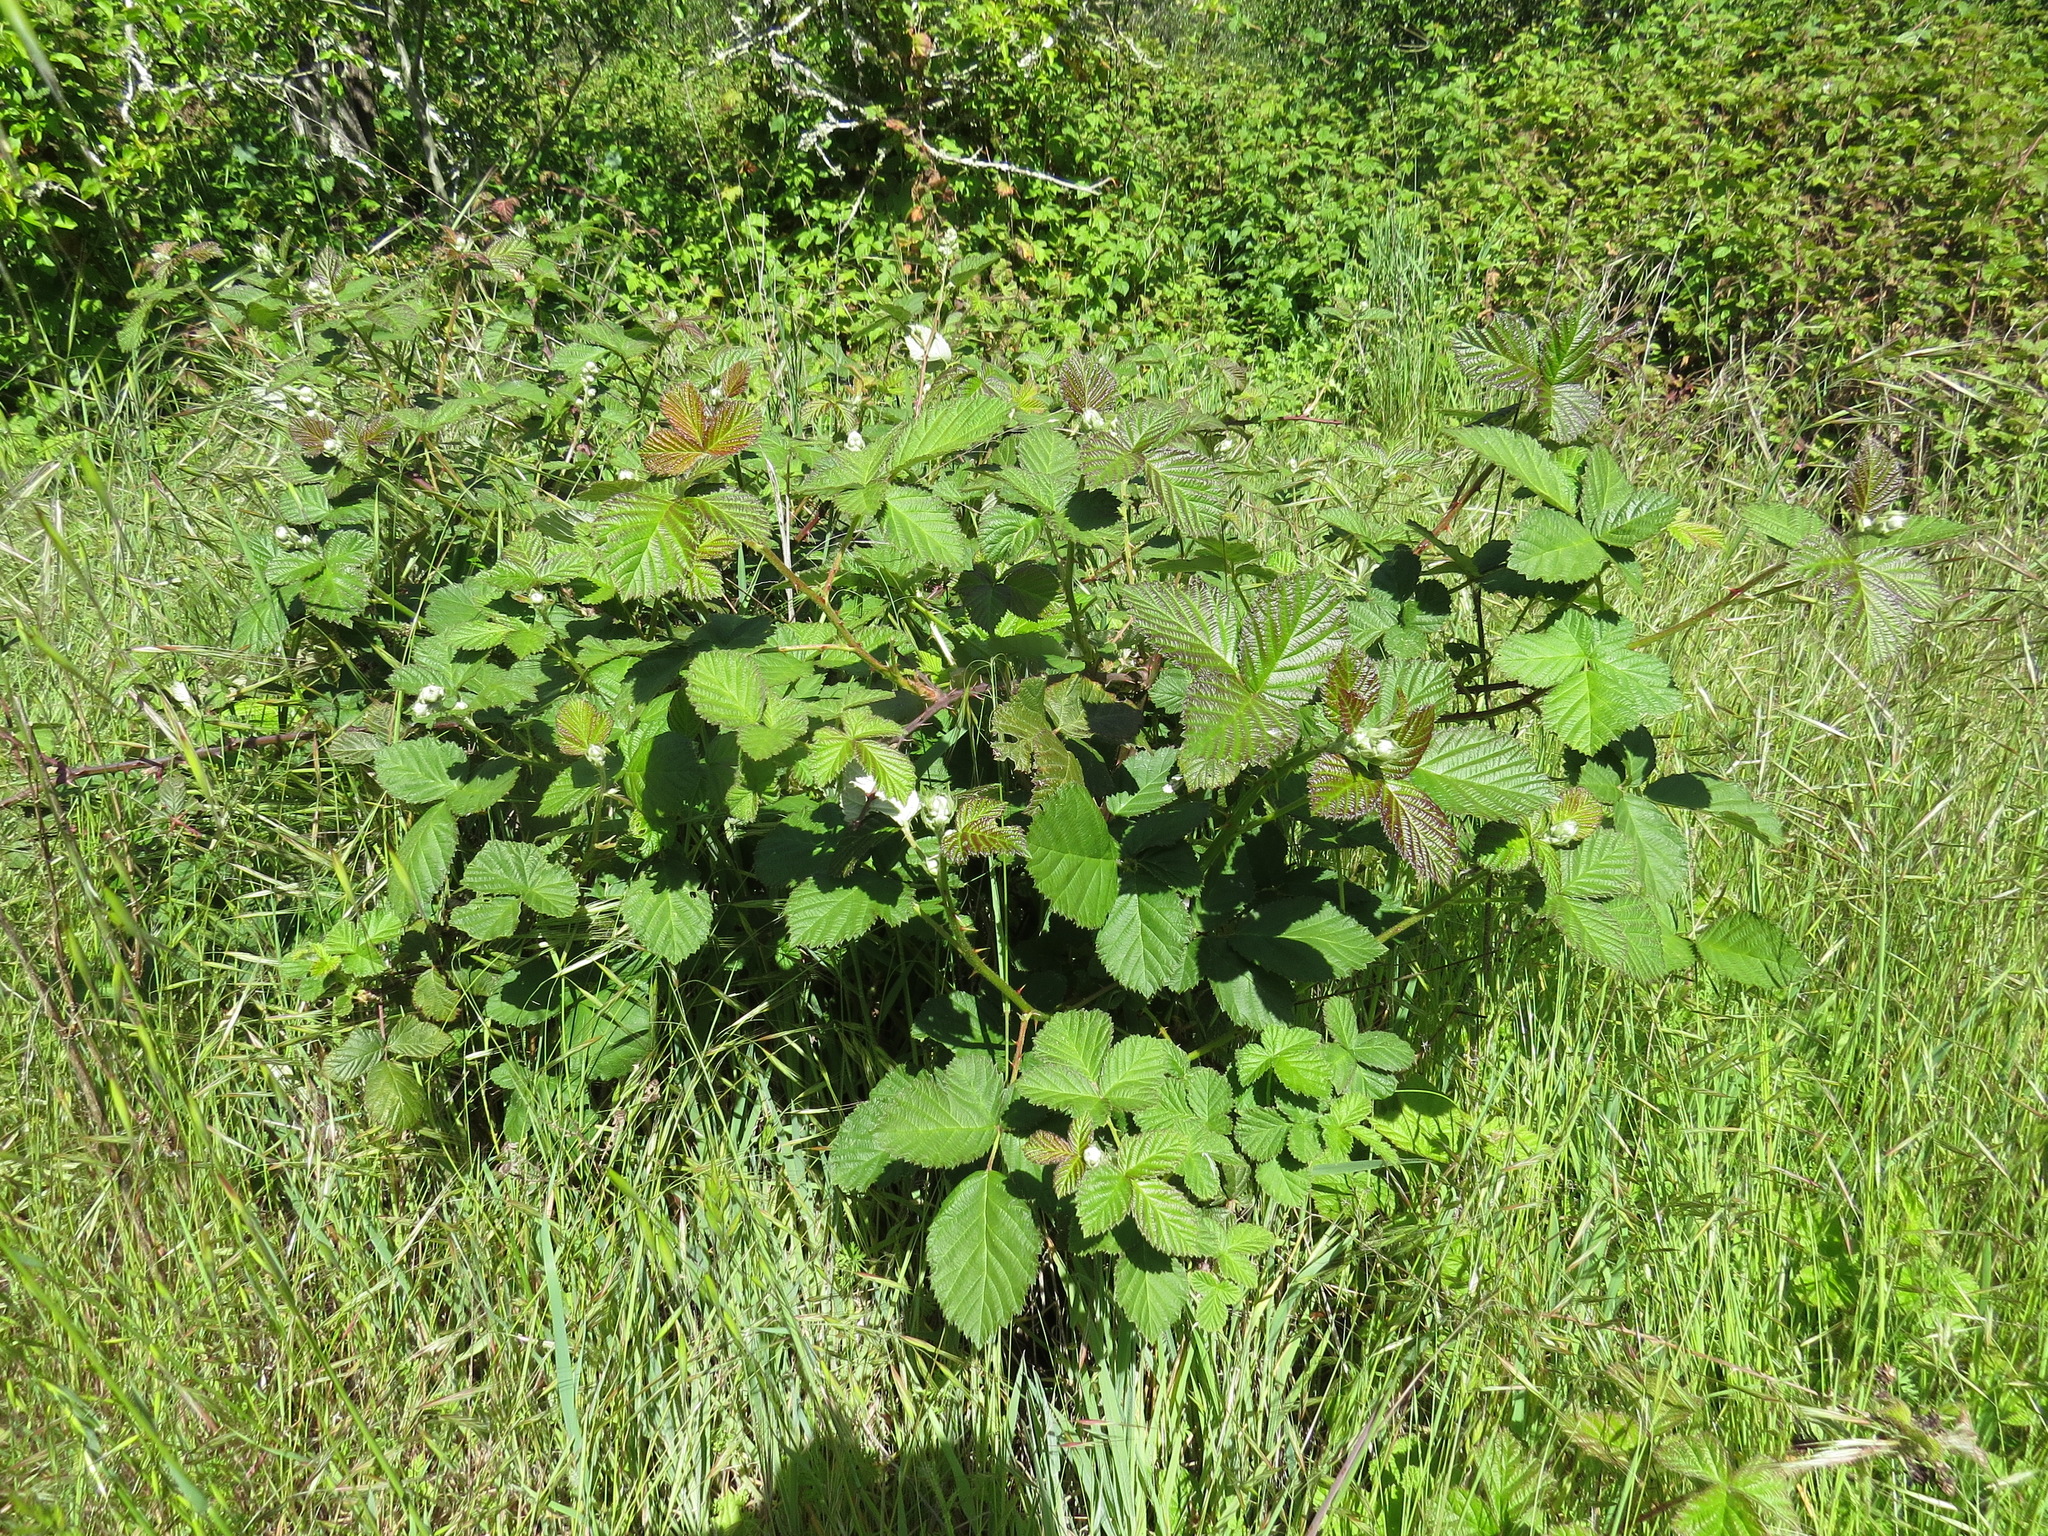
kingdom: Plantae
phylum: Tracheophyta
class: Magnoliopsida
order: Rosales
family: Rosaceae
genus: Rubus
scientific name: Rubus armeniacus
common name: Himalayan blackberry
